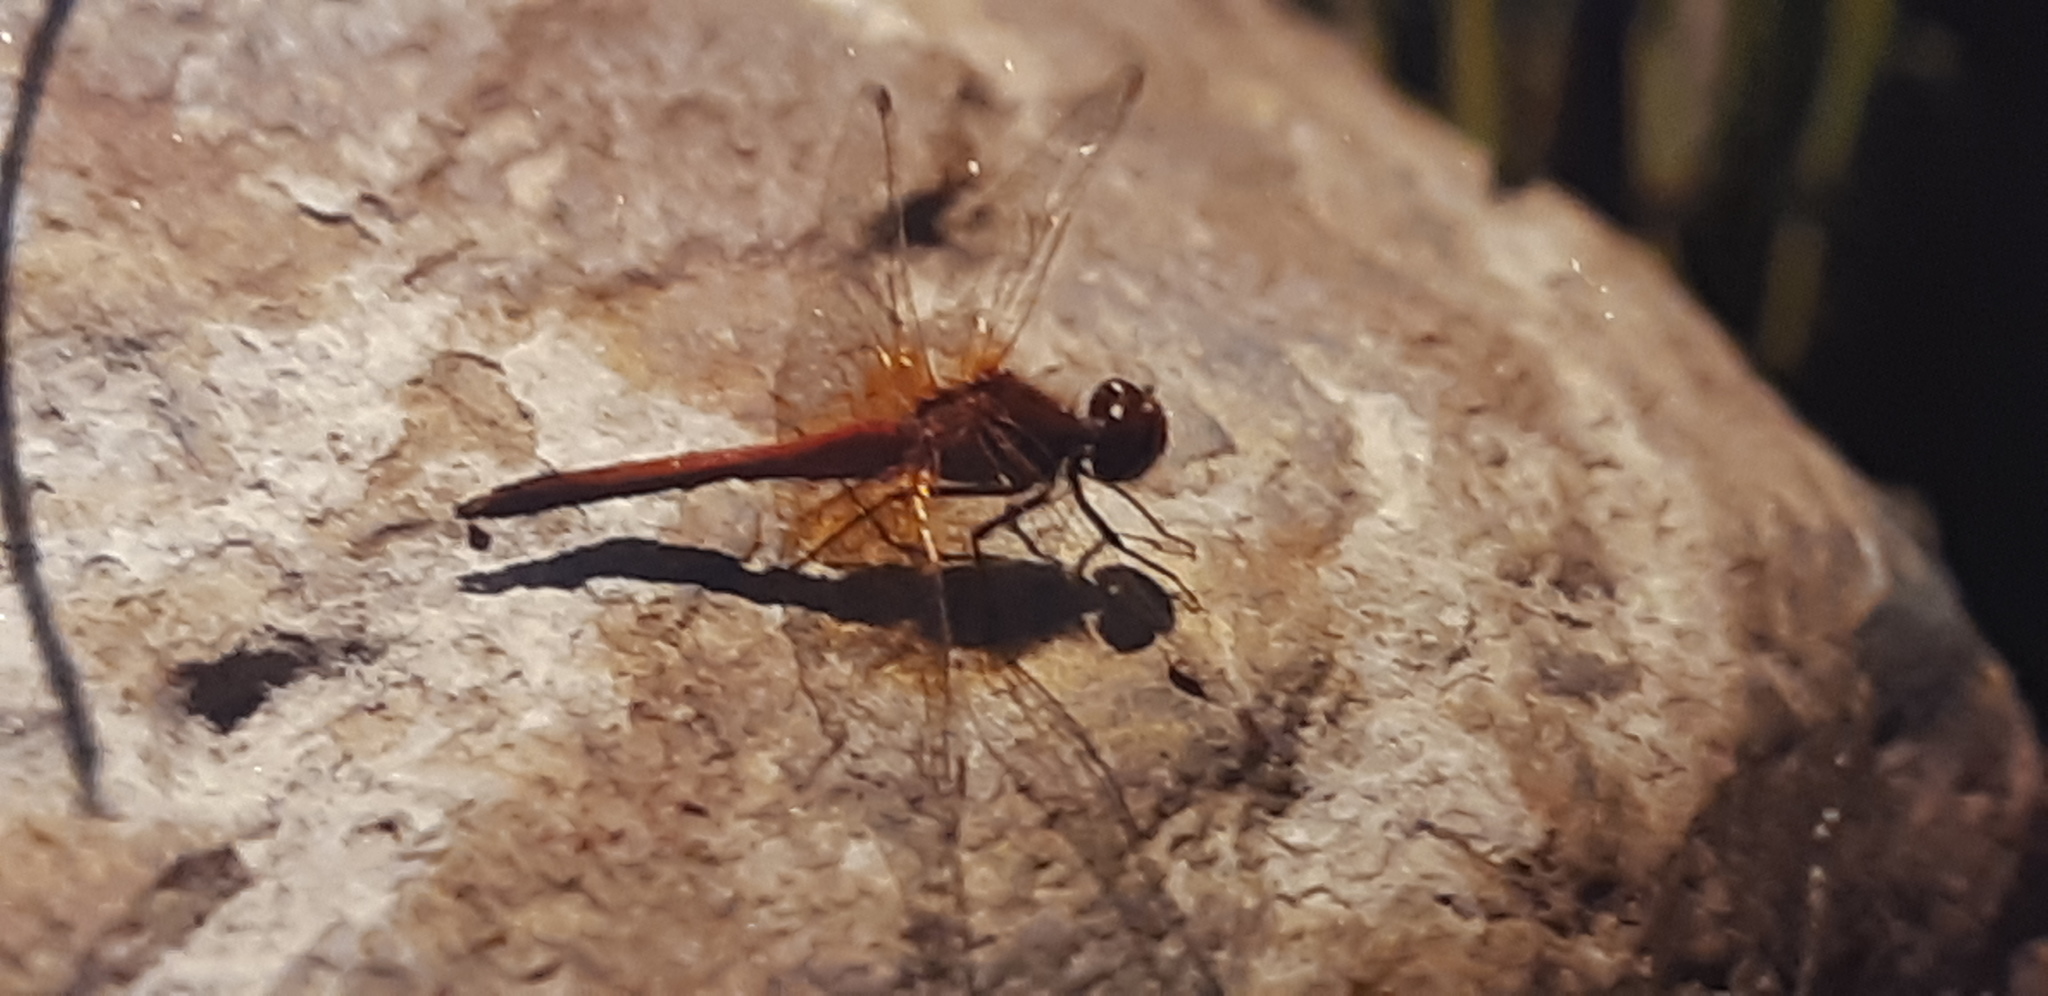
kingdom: Animalia
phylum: Arthropoda
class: Insecta
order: Odonata
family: Libellulidae
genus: Sympetrum
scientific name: Sympetrum flaveolum
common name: Yellow-winged darter
